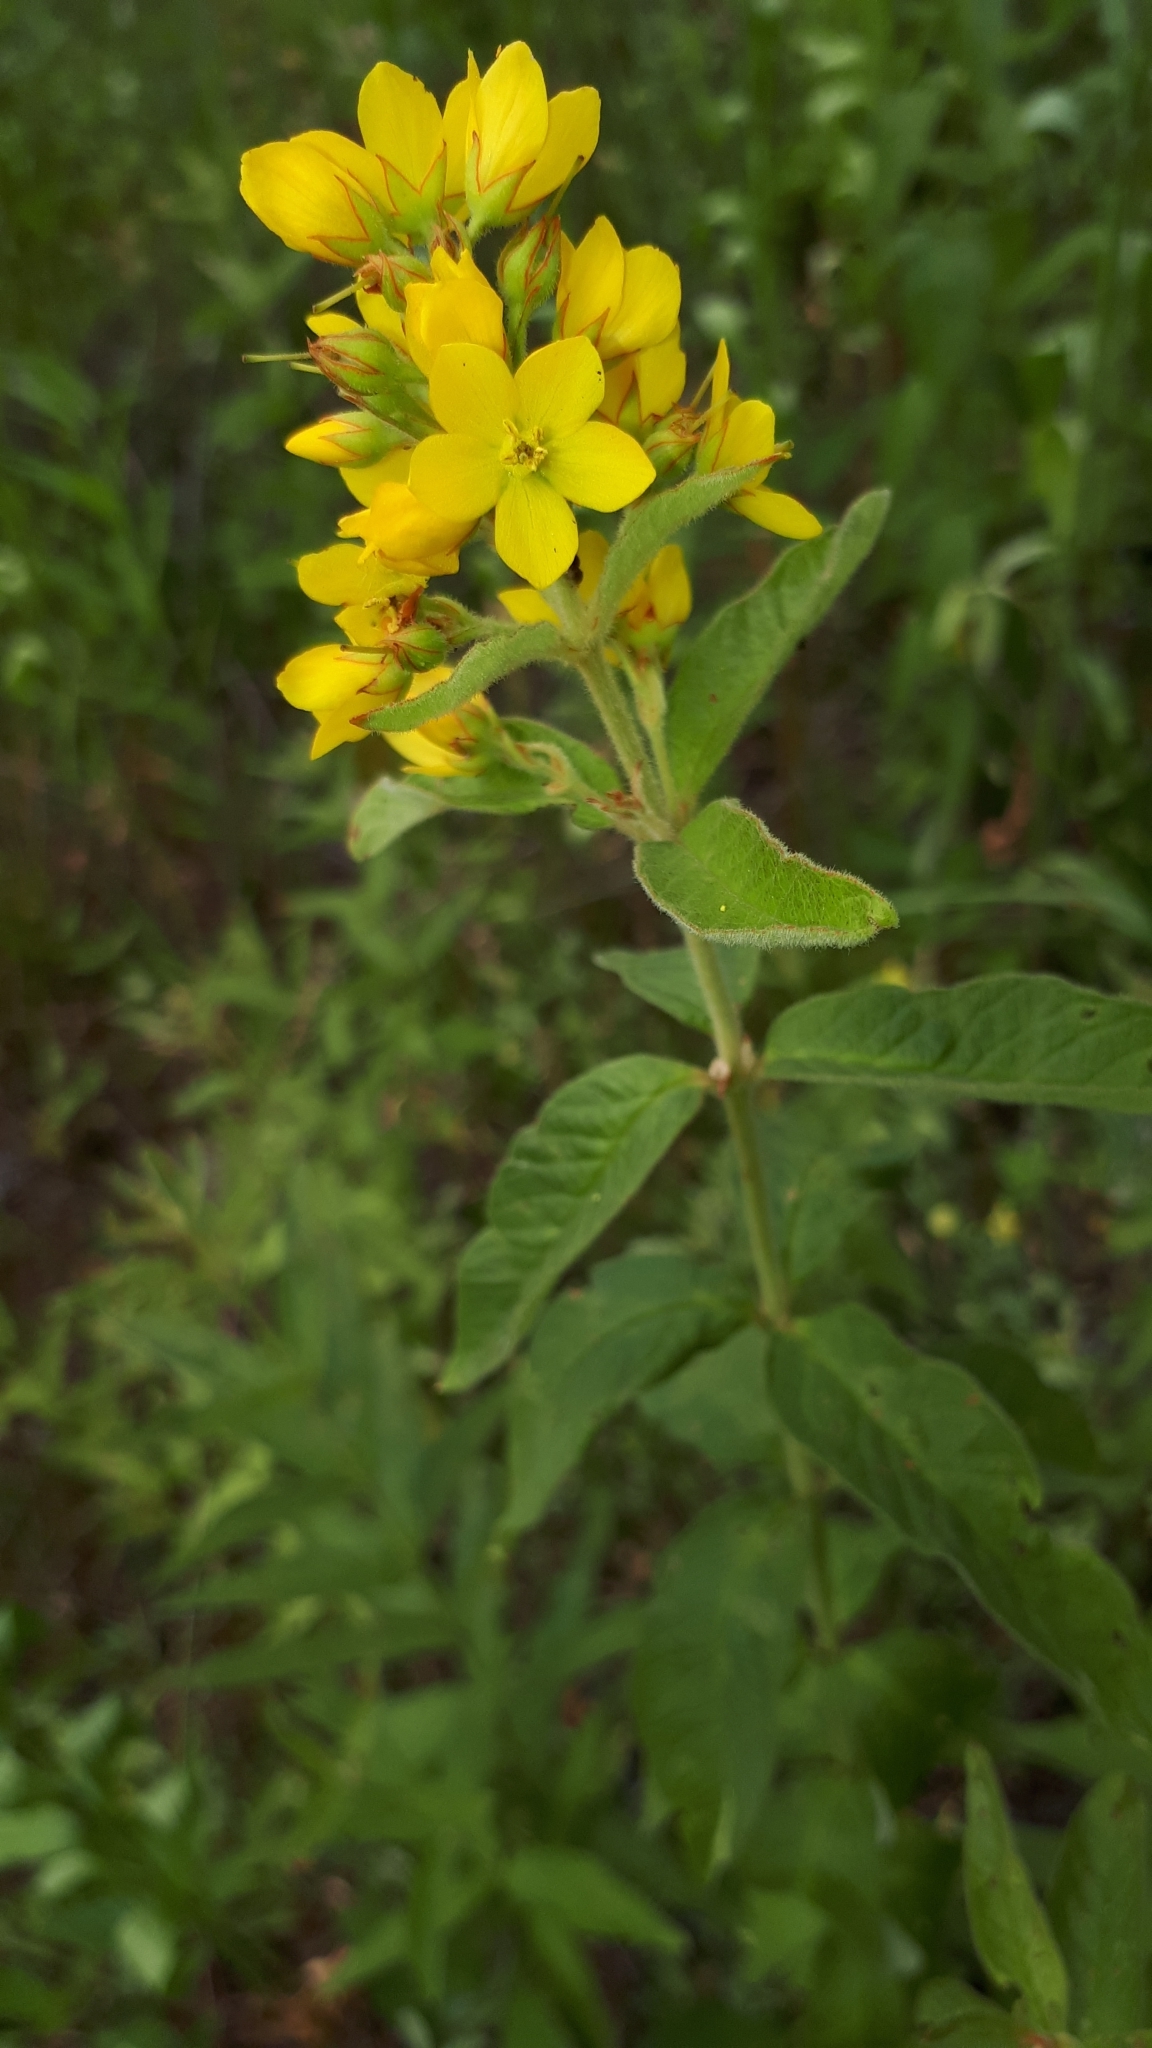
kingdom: Plantae
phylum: Tracheophyta
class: Magnoliopsida
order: Ericales
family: Primulaceae
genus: Lysimachia
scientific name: Lysimachia vulgaris
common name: Yellow loosestrife
